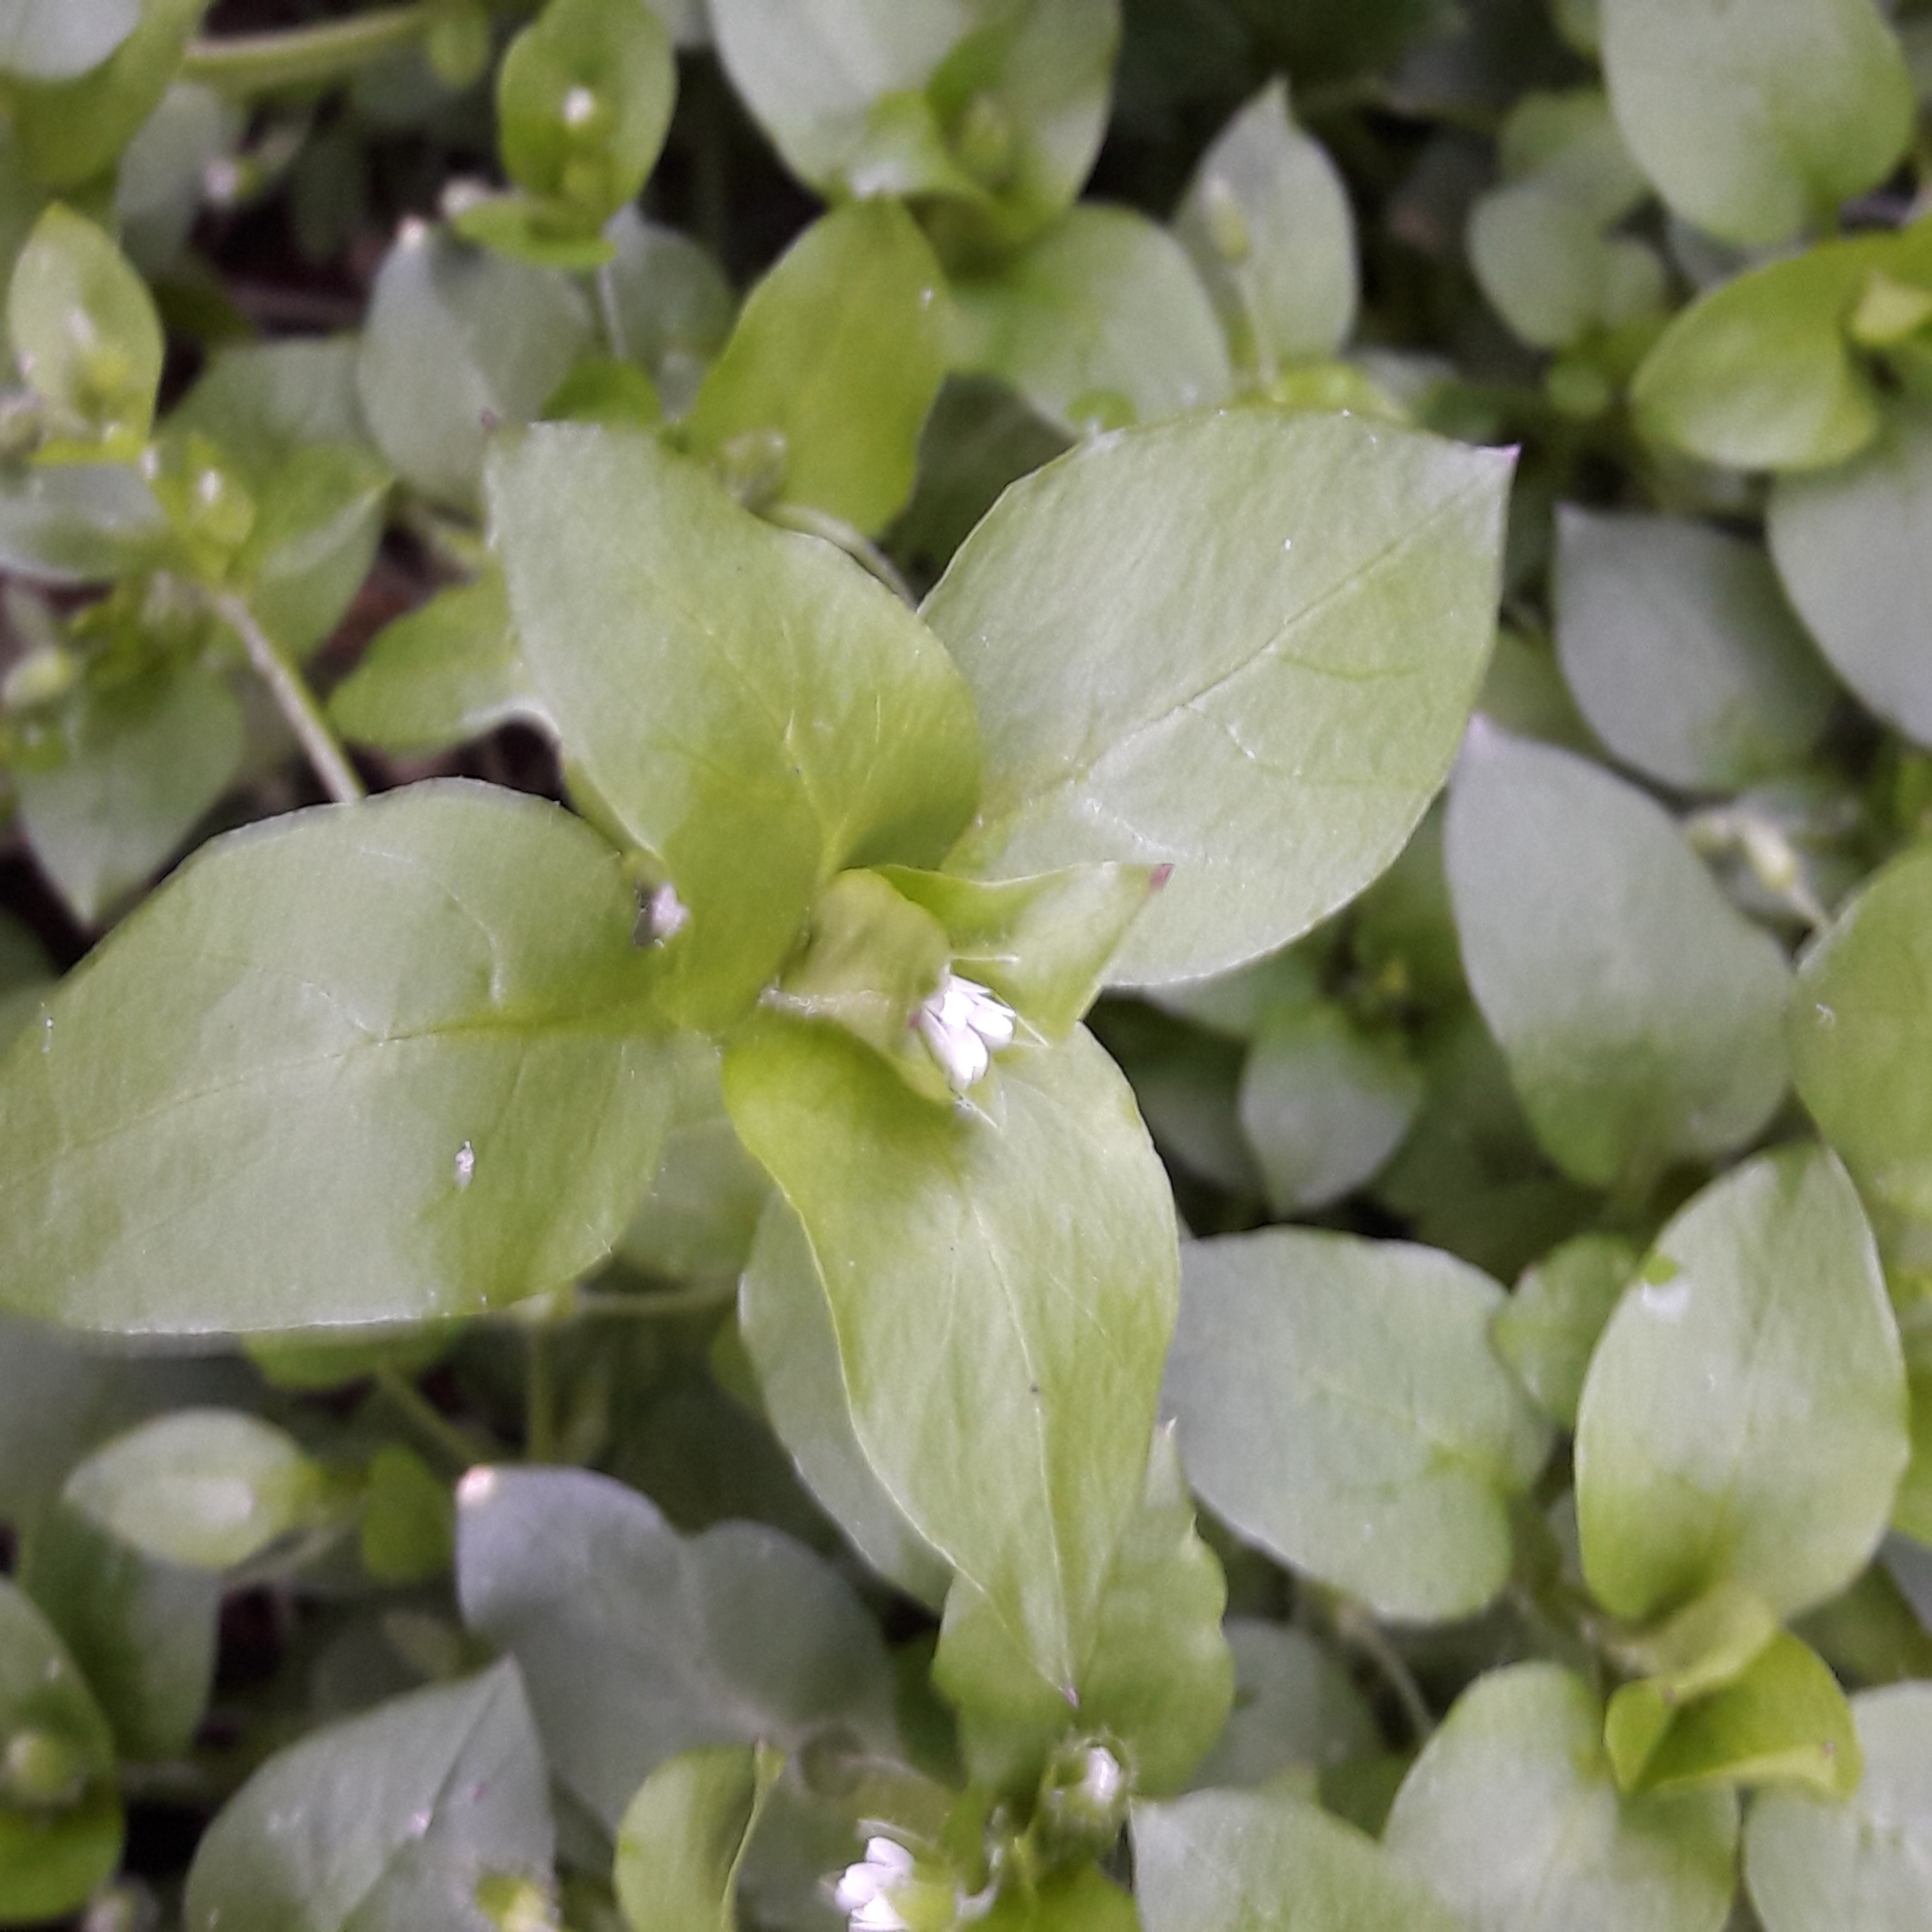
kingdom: Plantae
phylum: Tracheophyta
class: Magnoliopsida
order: Caryophyllales
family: Caryophyllaceae
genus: Stellaria
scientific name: Stellaria media
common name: Common chickweed
